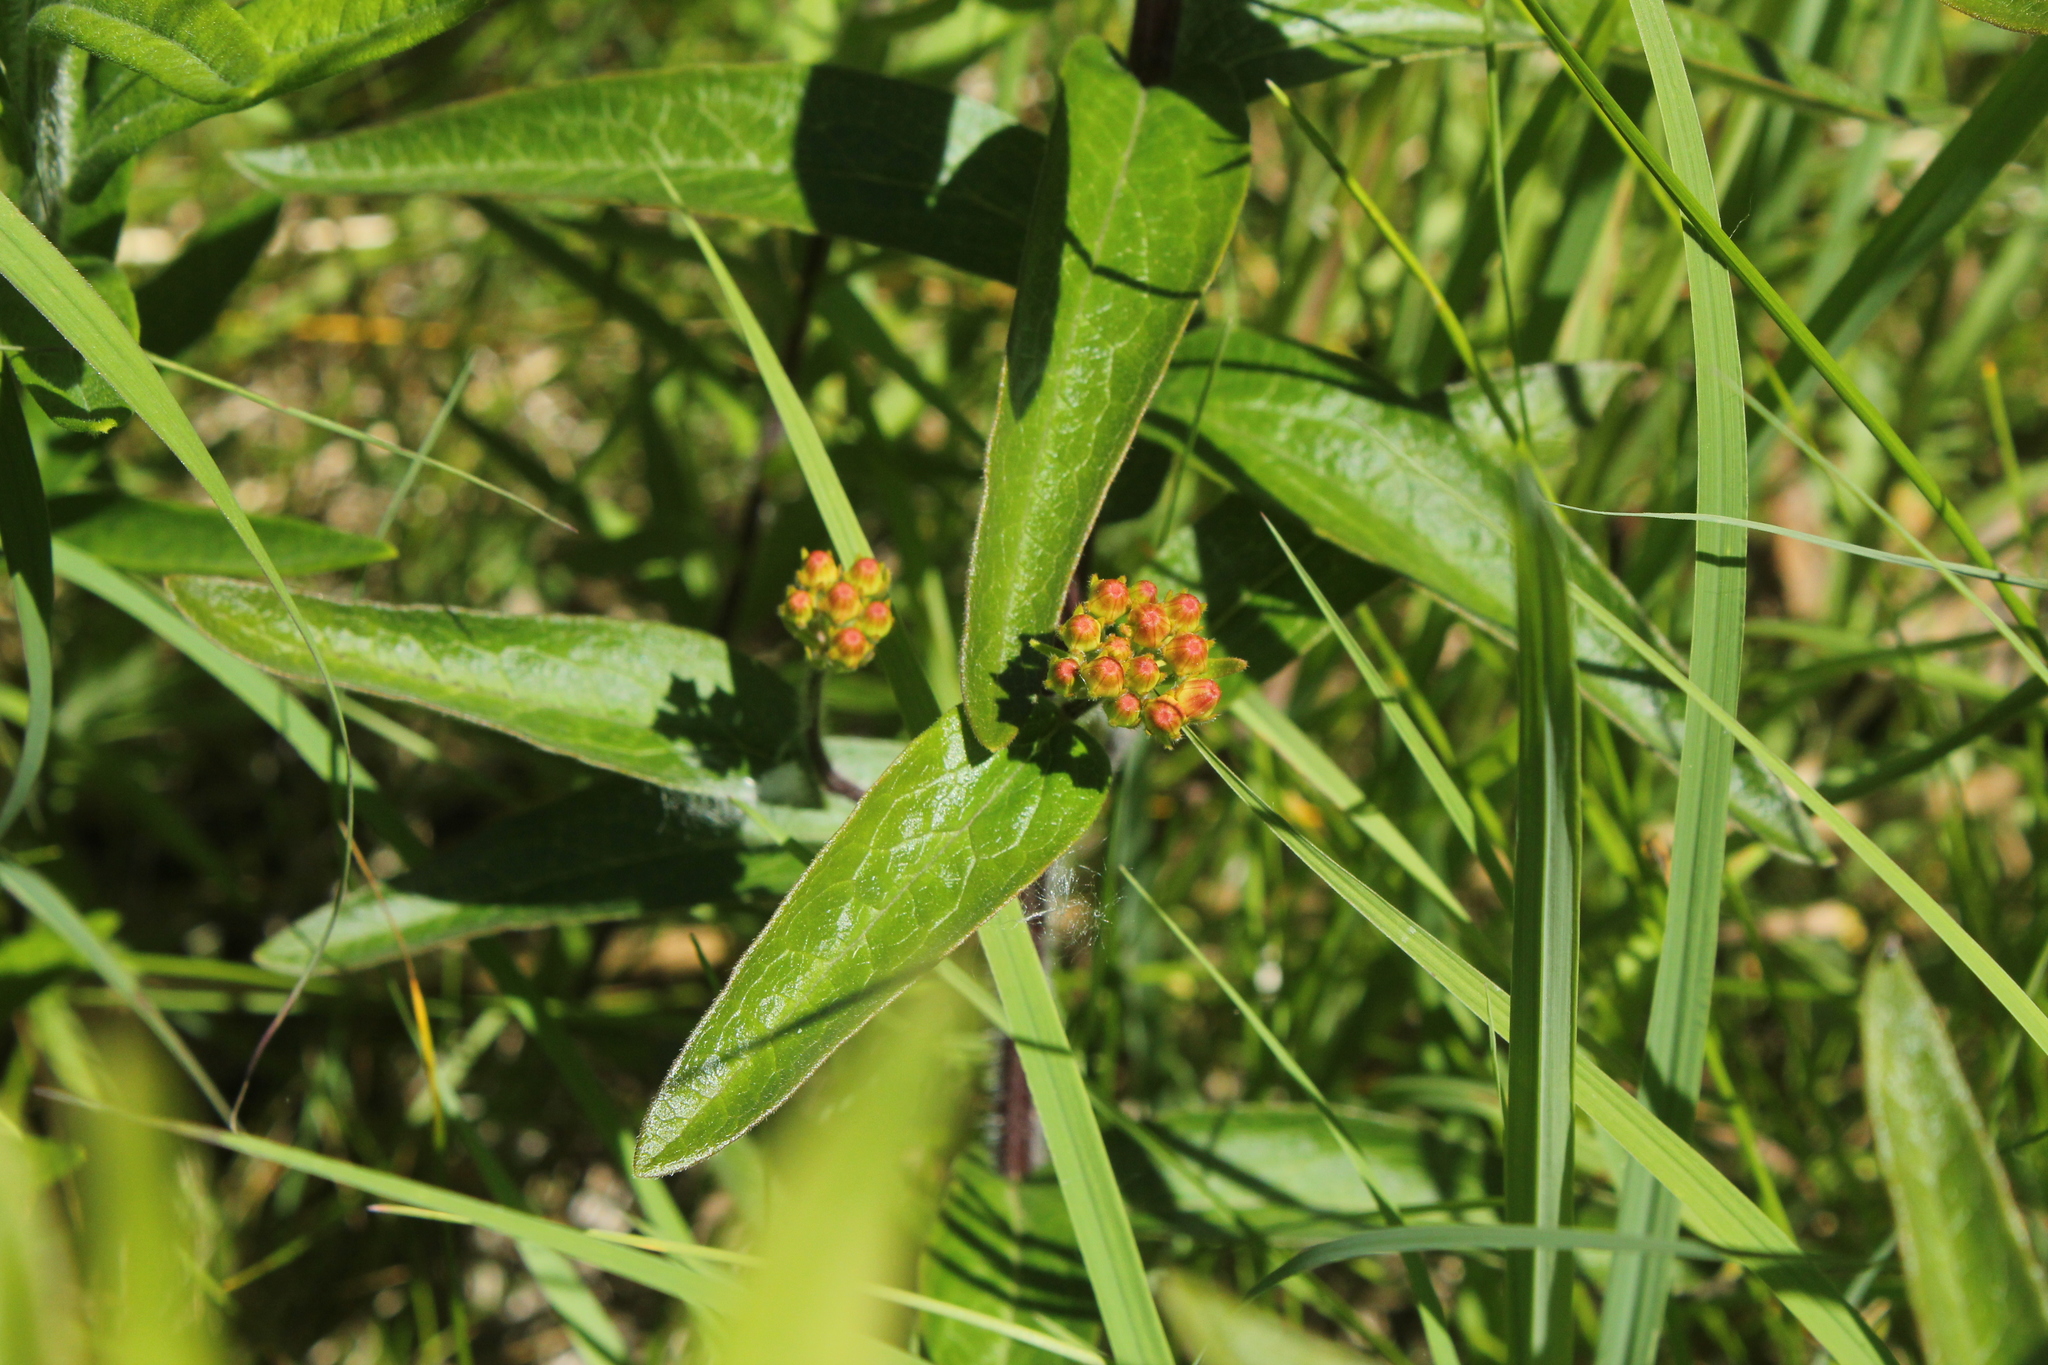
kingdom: Plantae
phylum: Tracheophyta
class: Magnoliopsida
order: Gentianales
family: Apocynaceae
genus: Asclepias
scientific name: Asclepias tuberosa
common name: Butterfly milkweed
